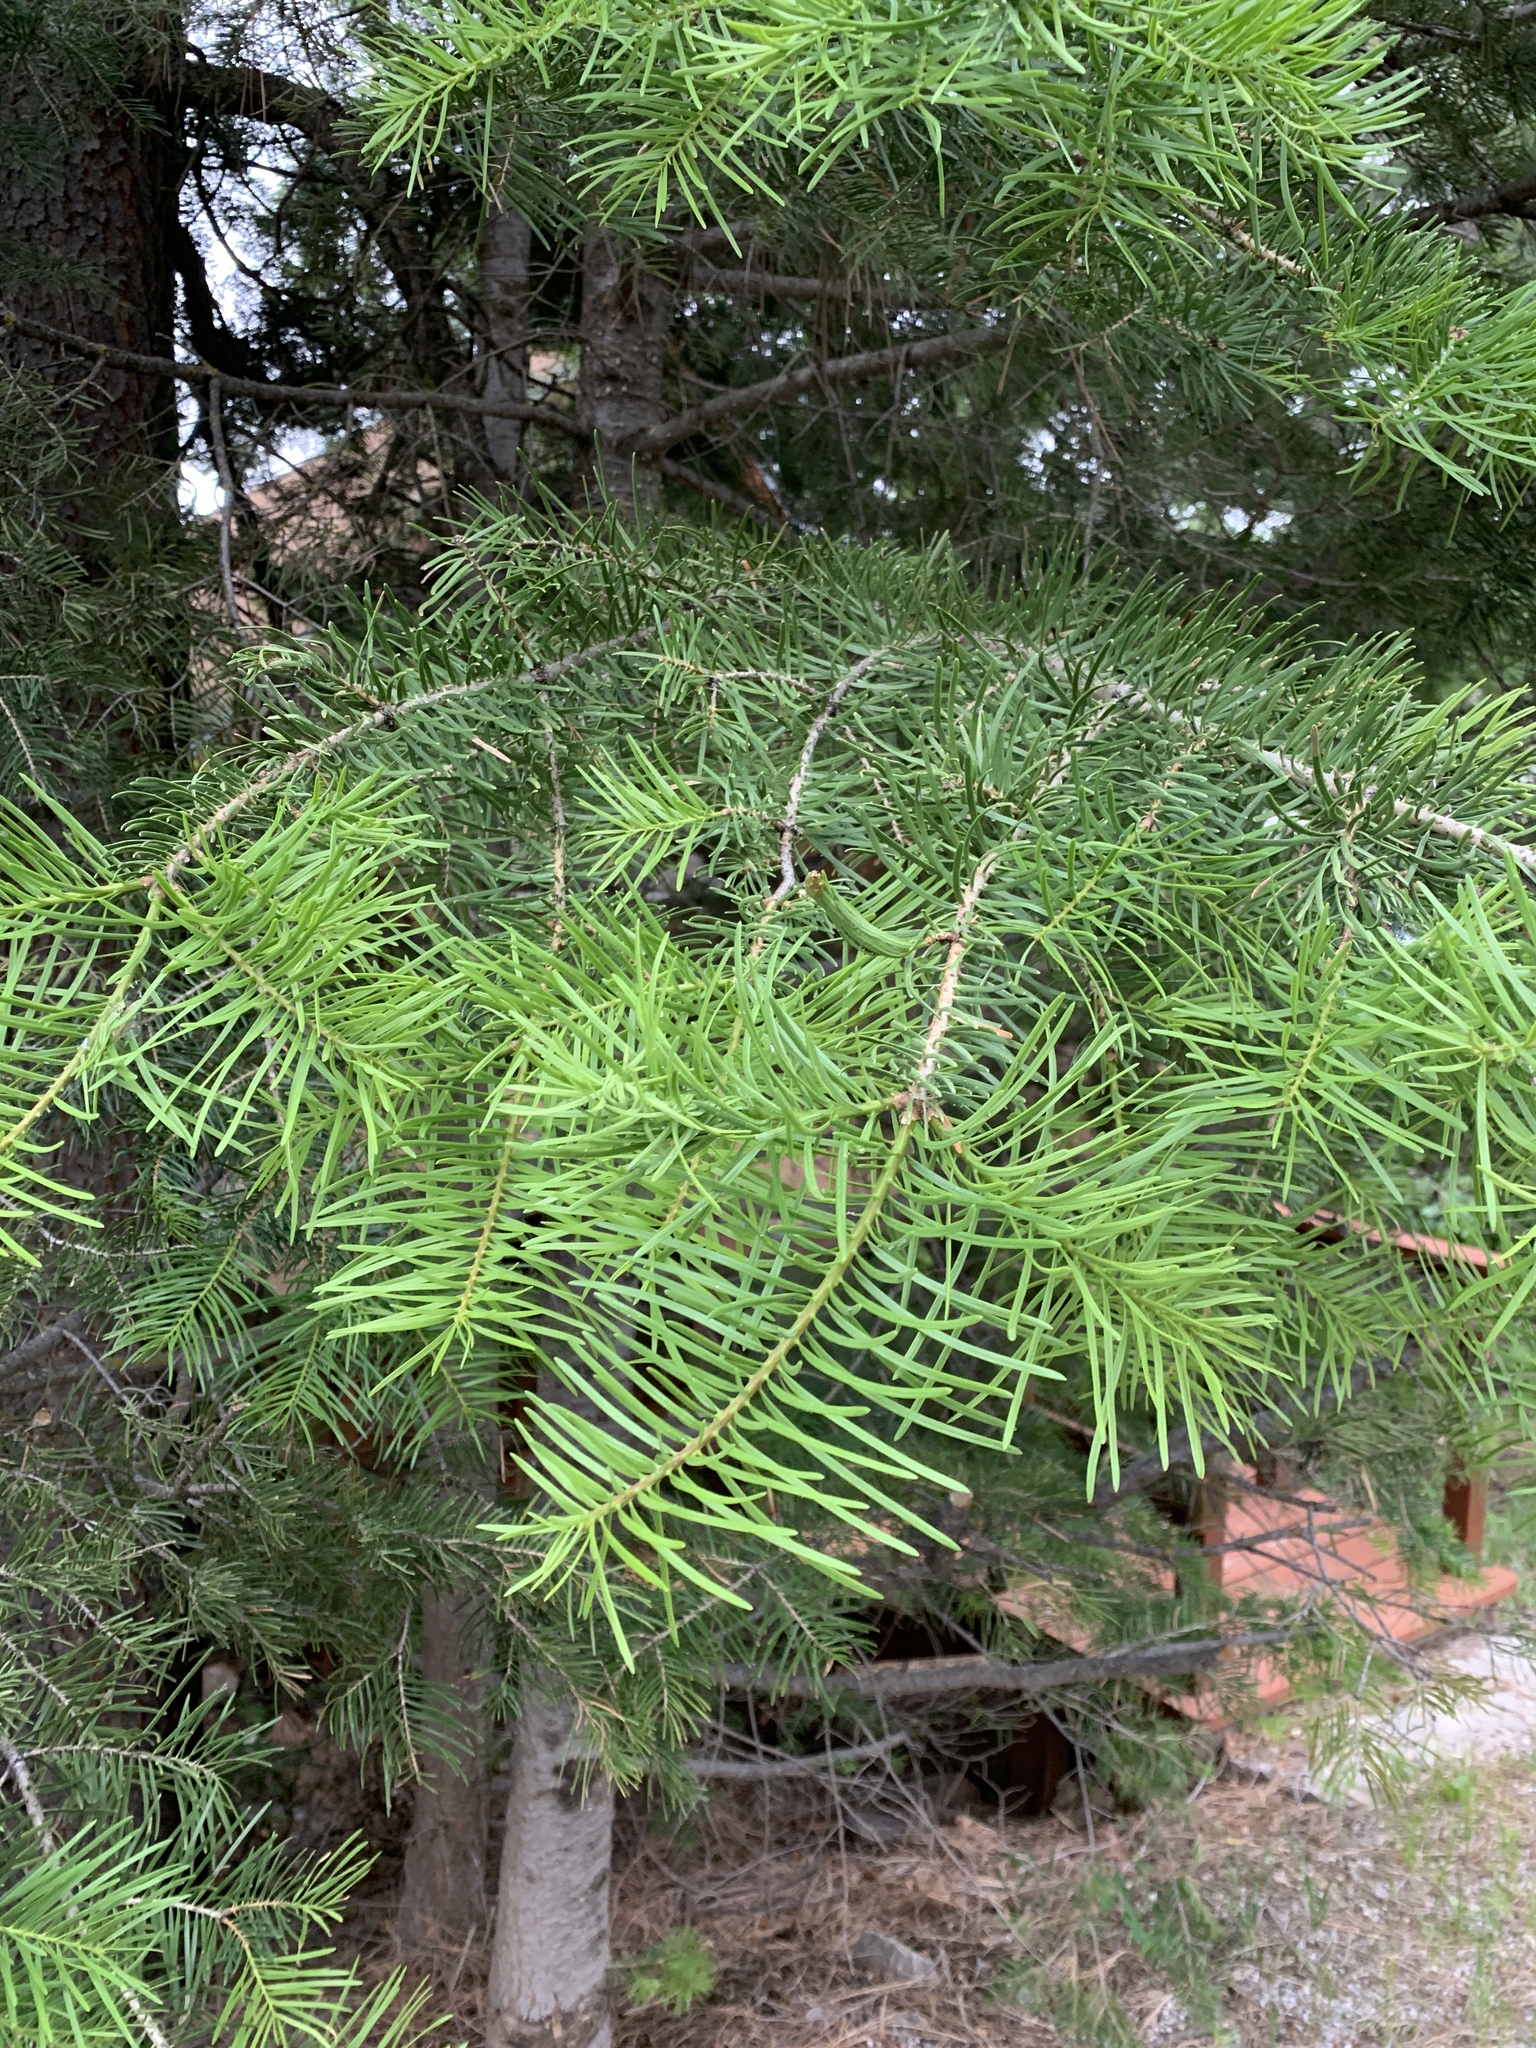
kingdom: Plantae
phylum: Tracheophyta
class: Pinopsida
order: Pinales
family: Pinaceae
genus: Abies
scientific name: Abies concolor
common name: Colorado fir
